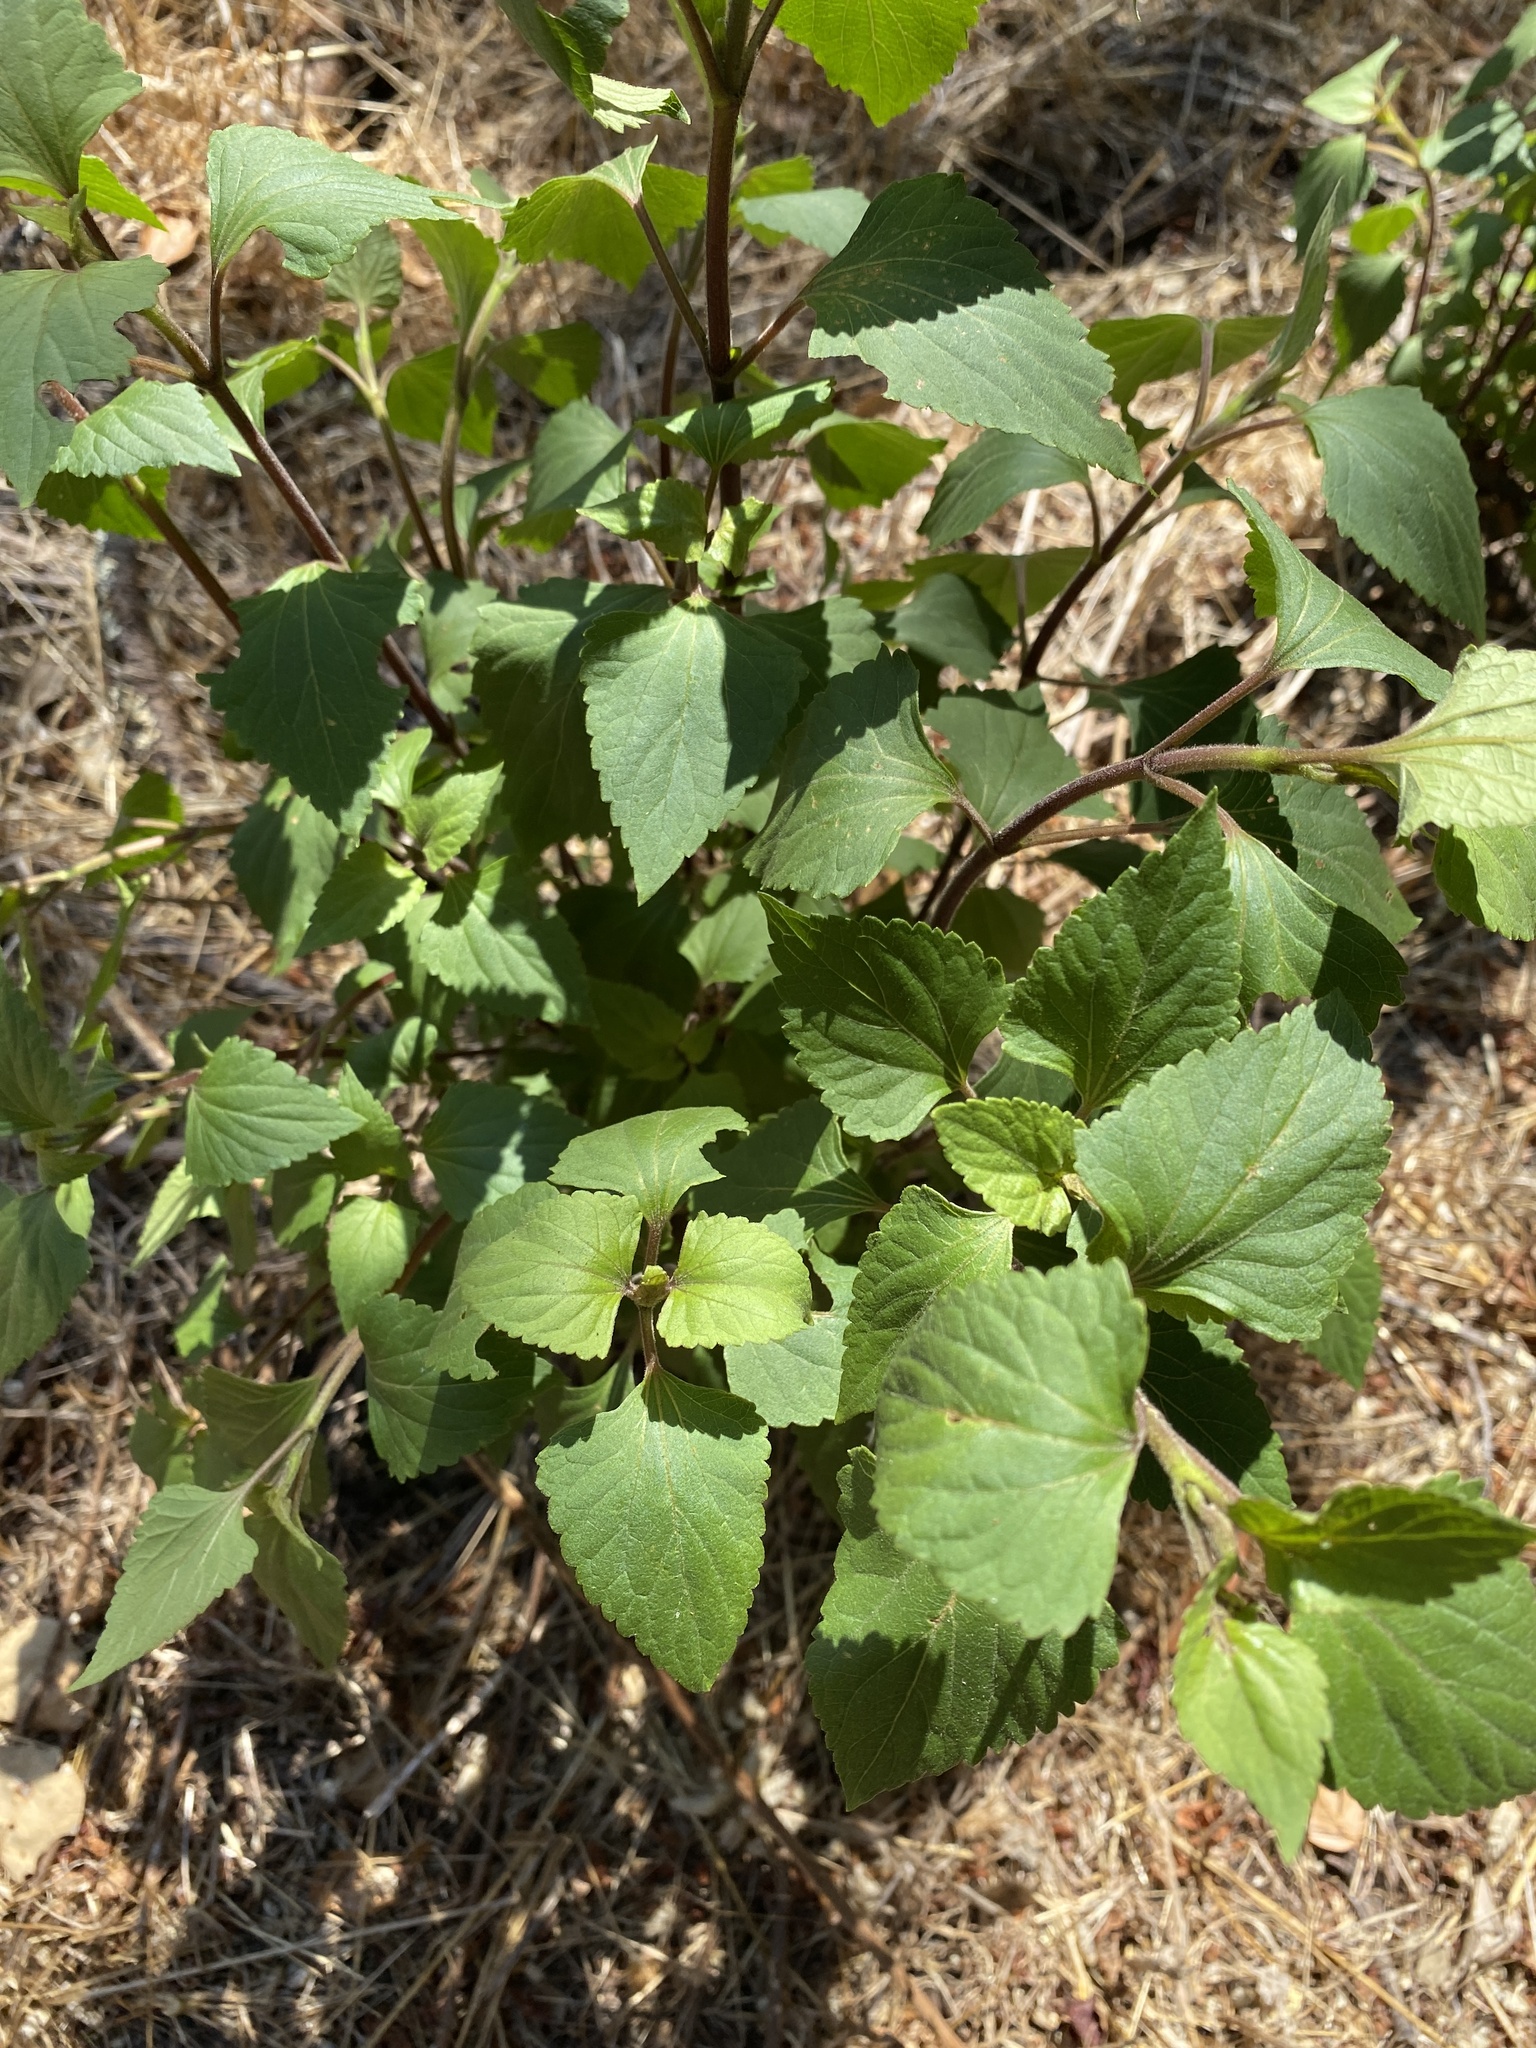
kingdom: Plantae
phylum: Tracheophyta
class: Magnoliopsida
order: Asterales
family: Asteraceae
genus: Ageratina
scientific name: Ageratina adenophora
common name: Sticky snakeroot
